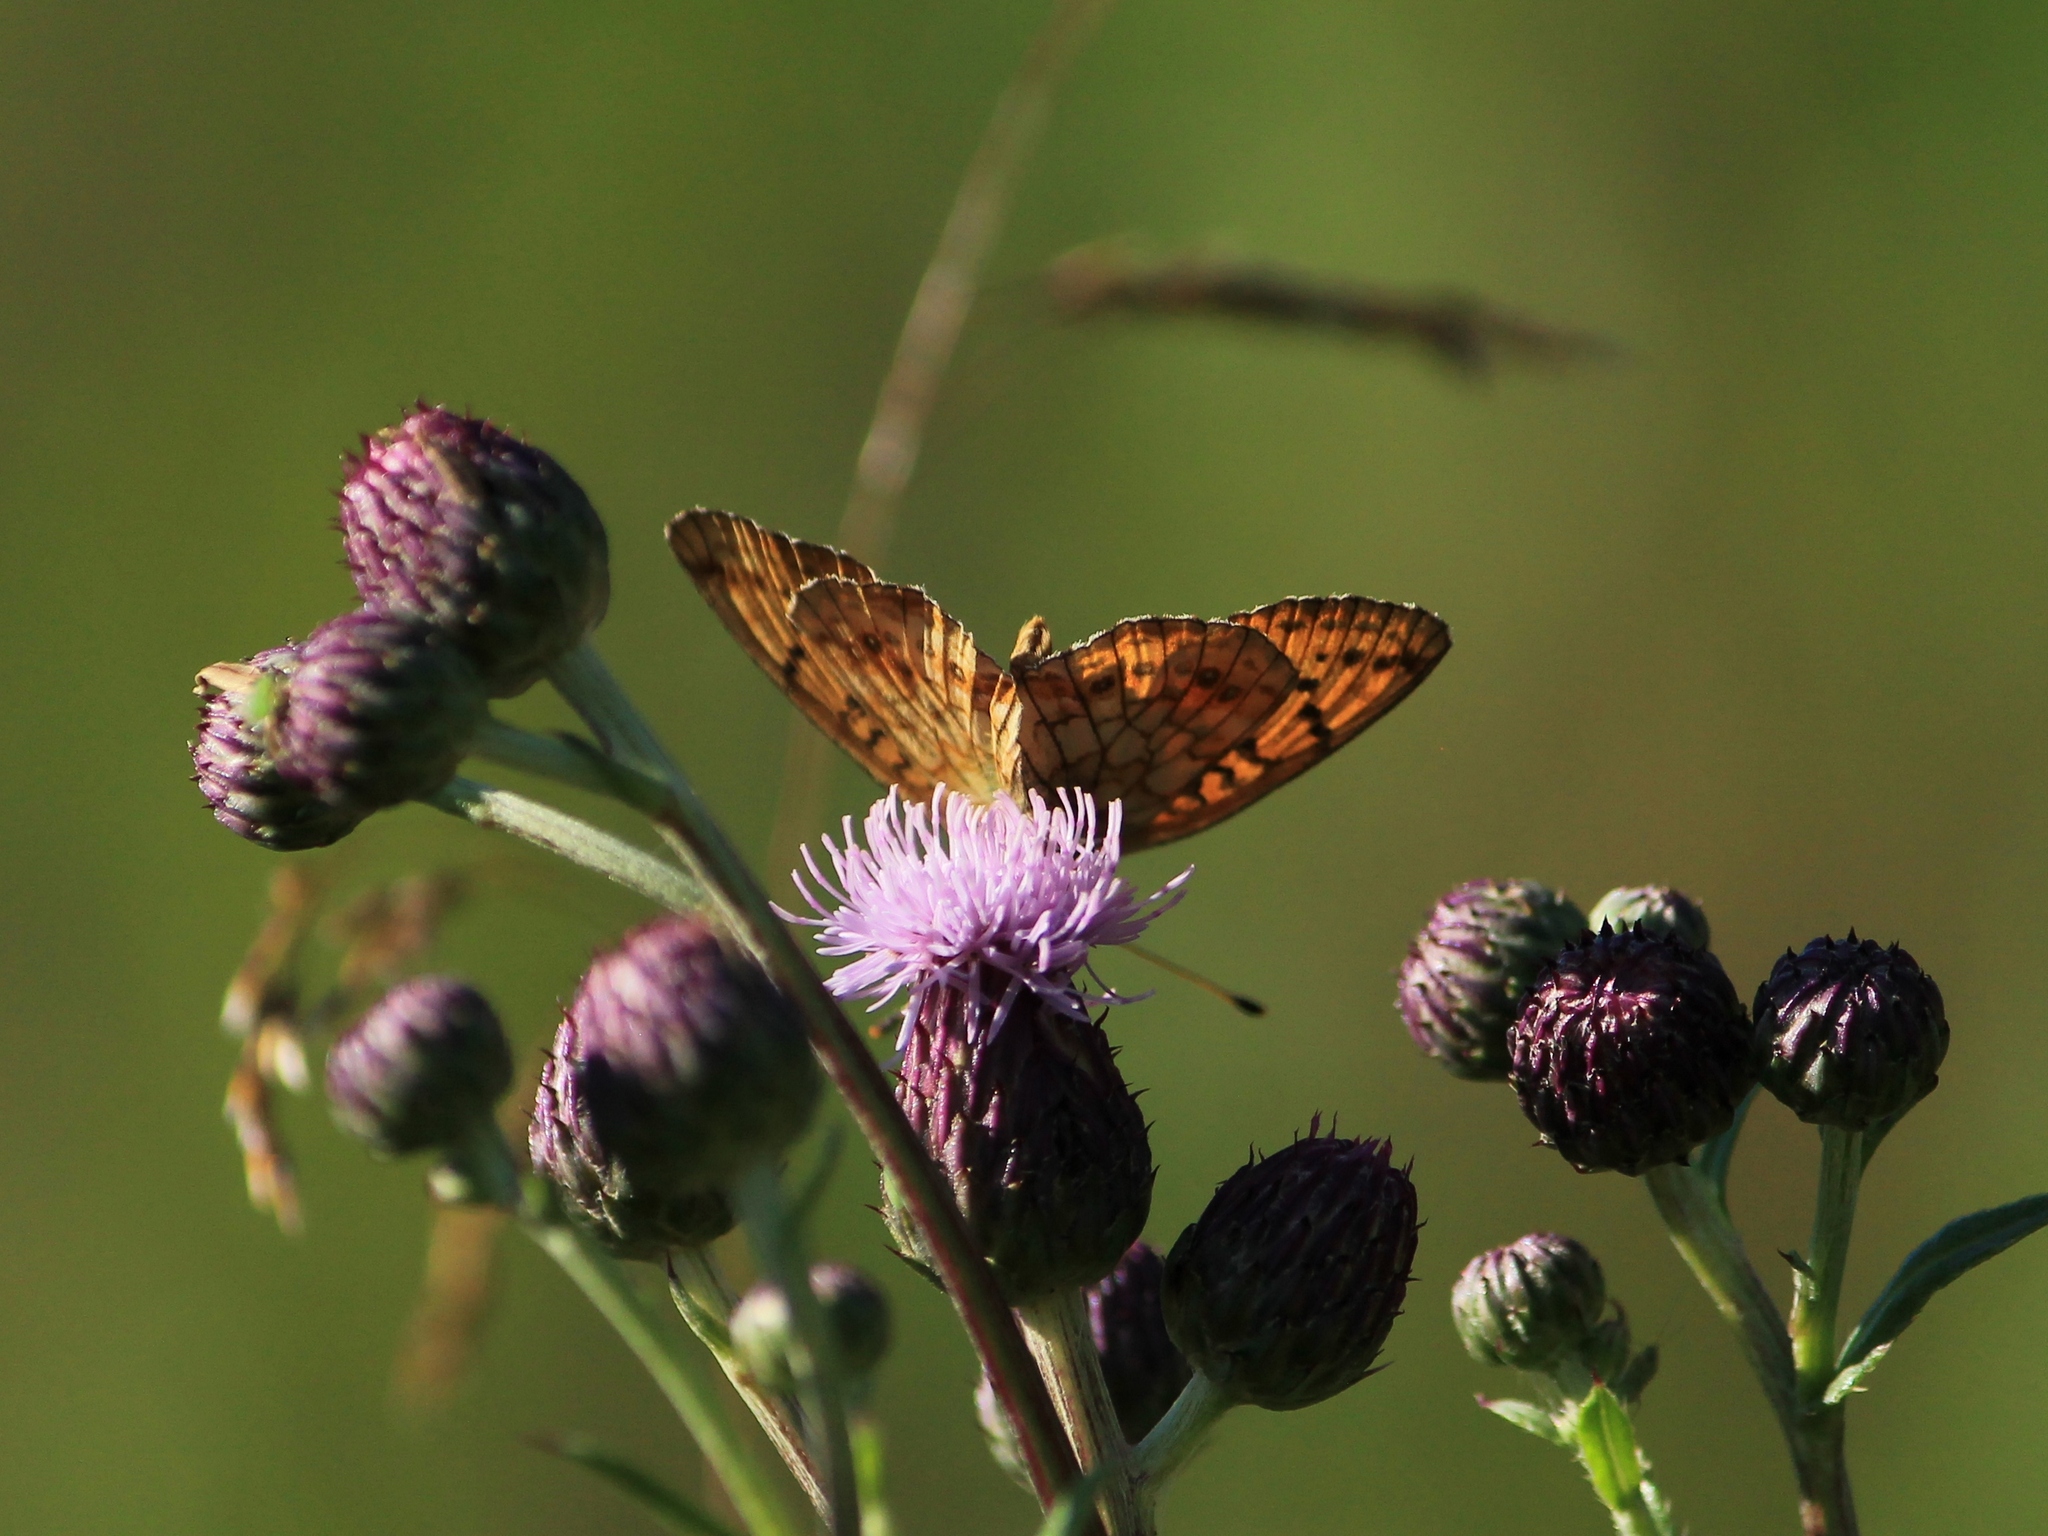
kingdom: Animalia
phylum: Arthropoda
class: Insecta
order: Lepidoptera
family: Nymphalidae
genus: Brenthis
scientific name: Brenthis ino
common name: Lesser marbled fritillary
